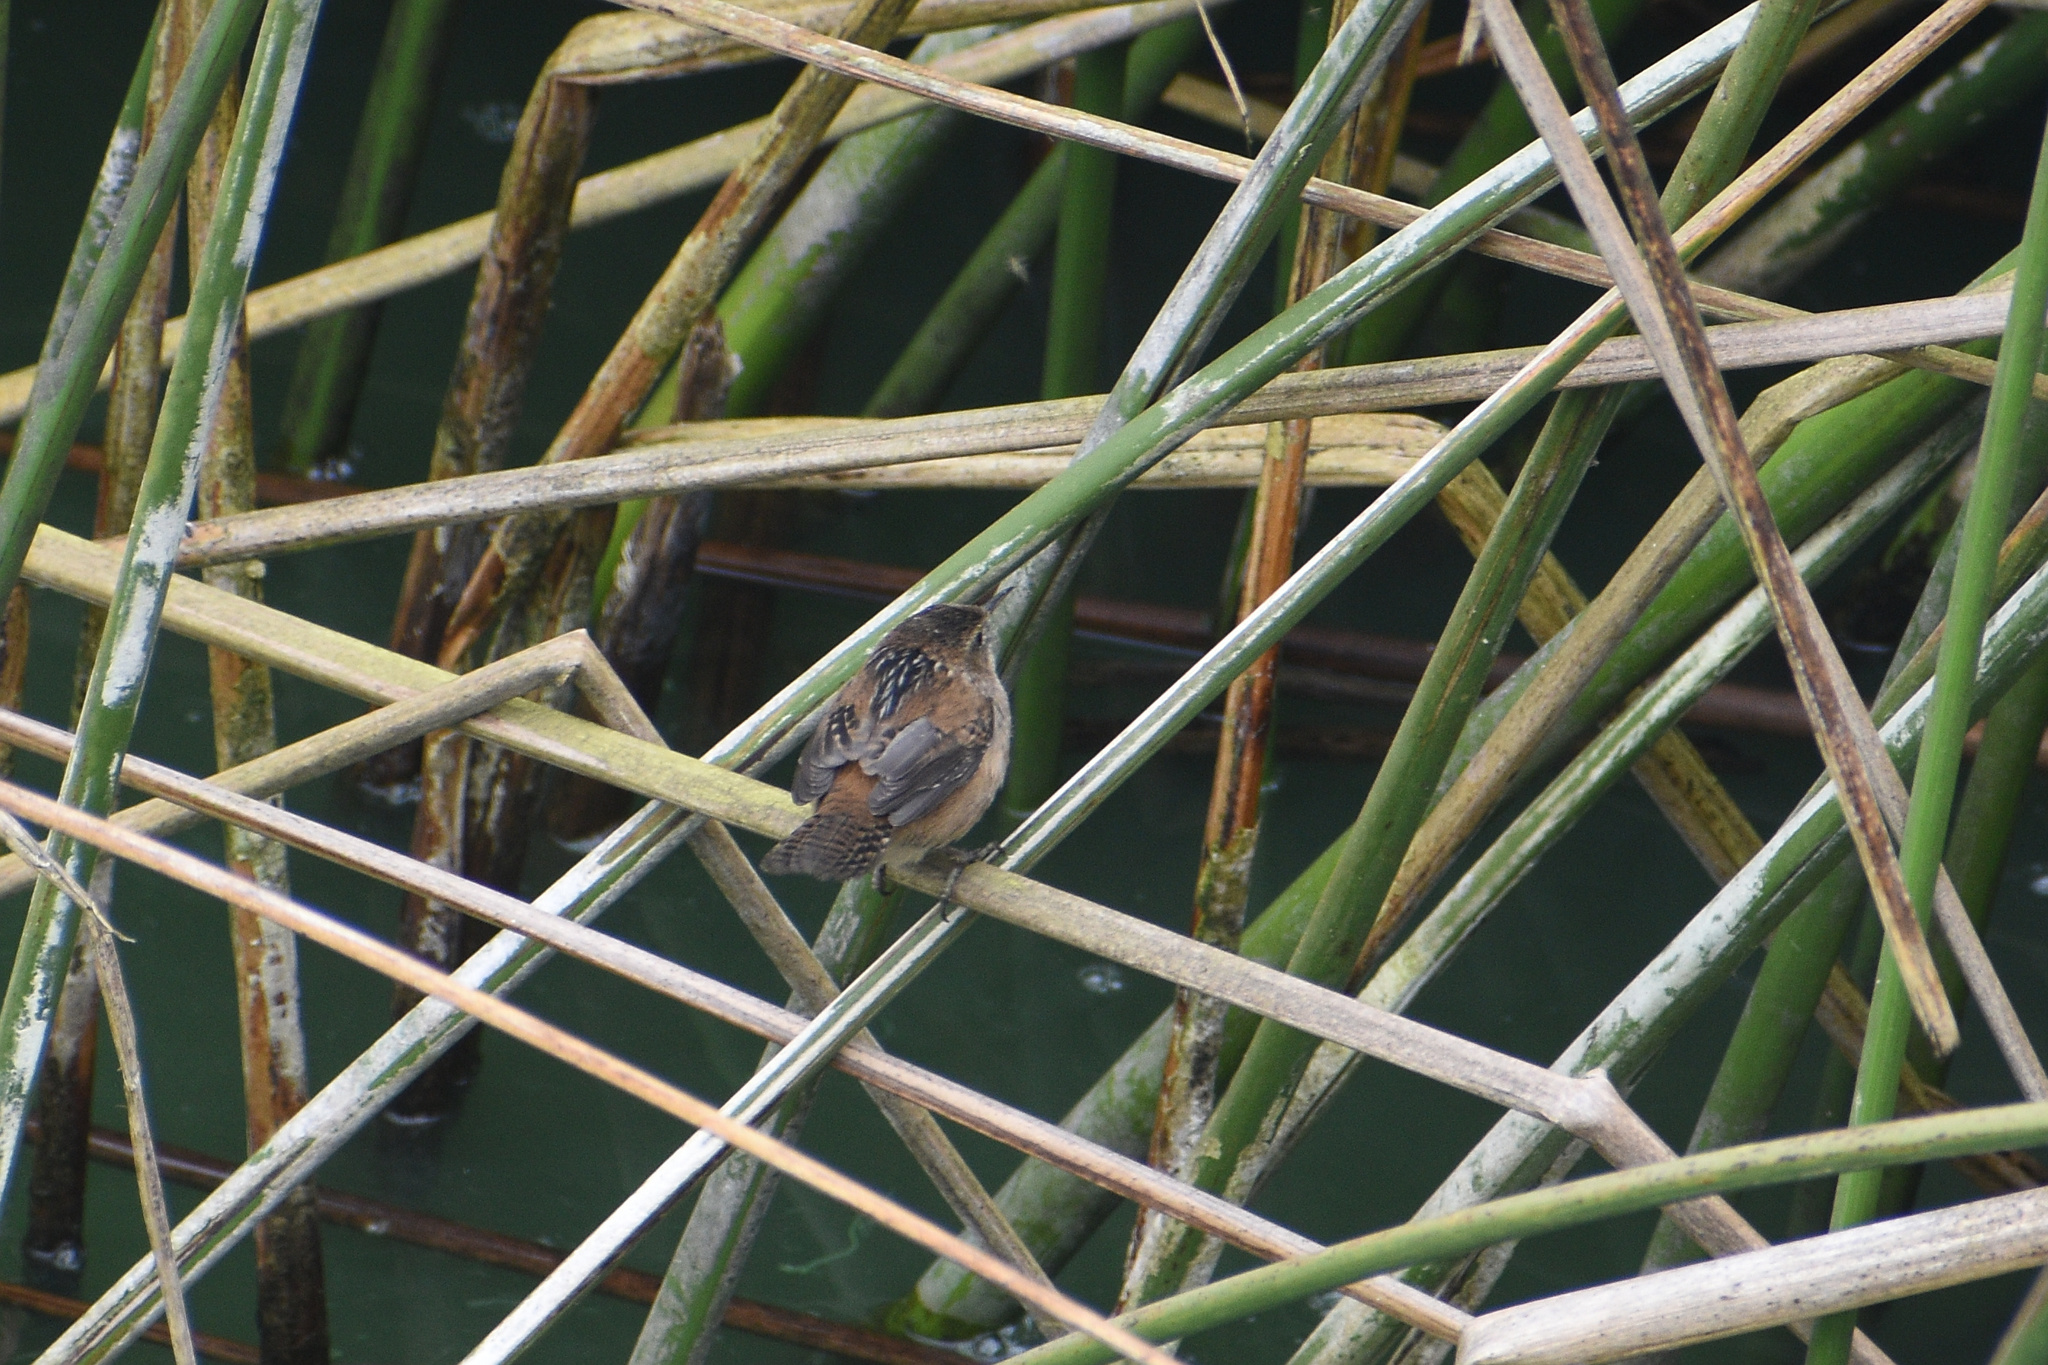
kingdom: Animalia
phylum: Chordata
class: Aves
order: Passeriformes
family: Troglodytidae
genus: Cistothorus
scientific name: Cistothorus palustris
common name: Marsh wren
